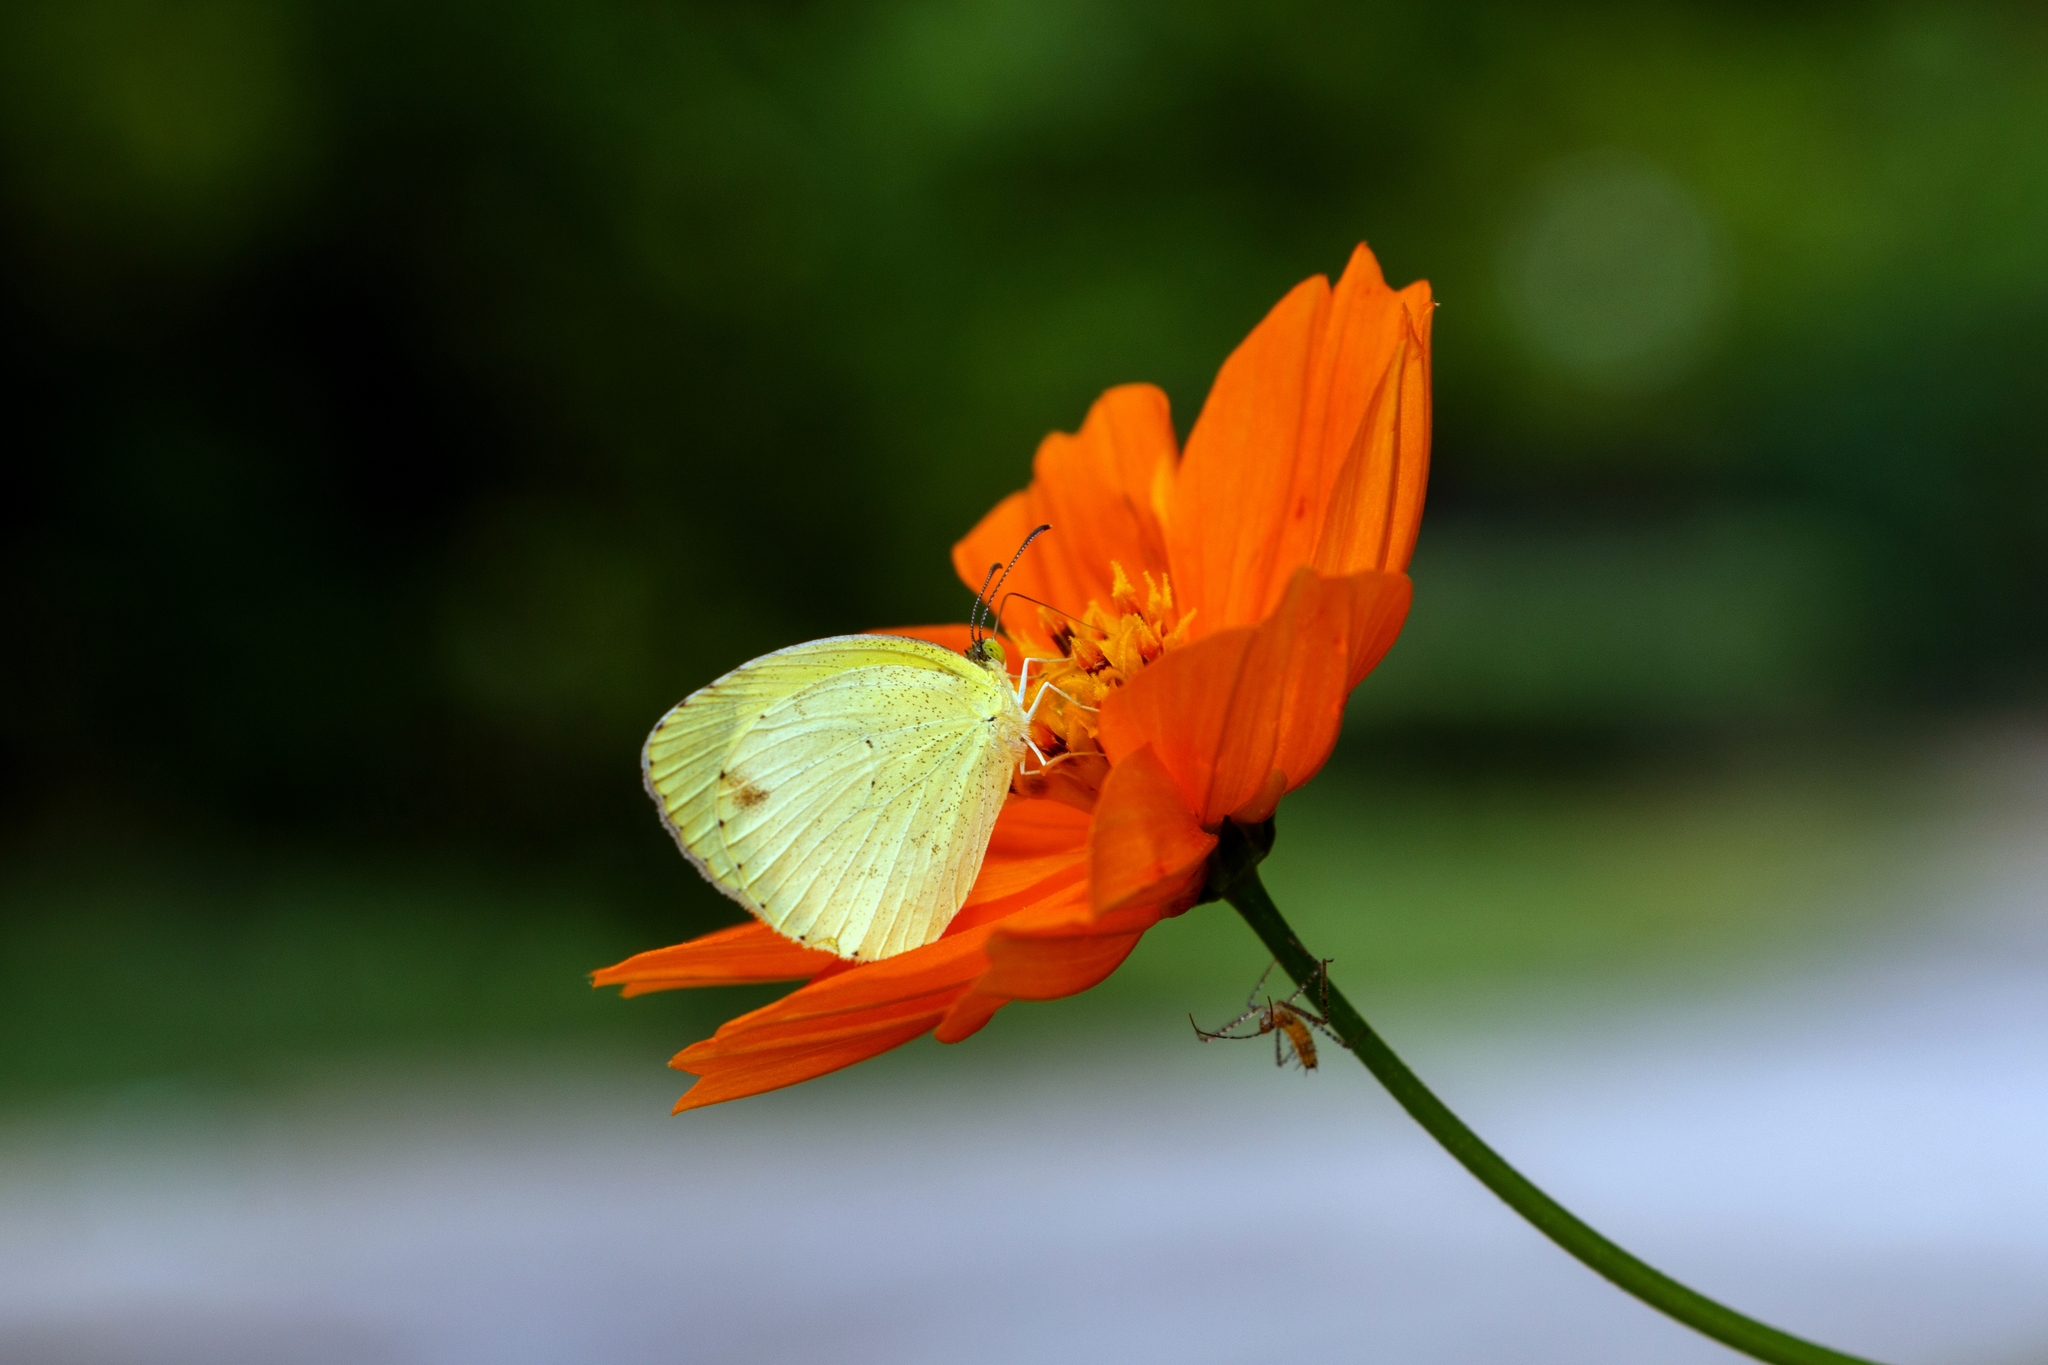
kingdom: Animalia
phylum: Arthropoda
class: Insecta
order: Lepidoptera
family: Pieridae
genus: Pyrisitia
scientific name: Pyrisitia nise
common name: Mimosa yellow
